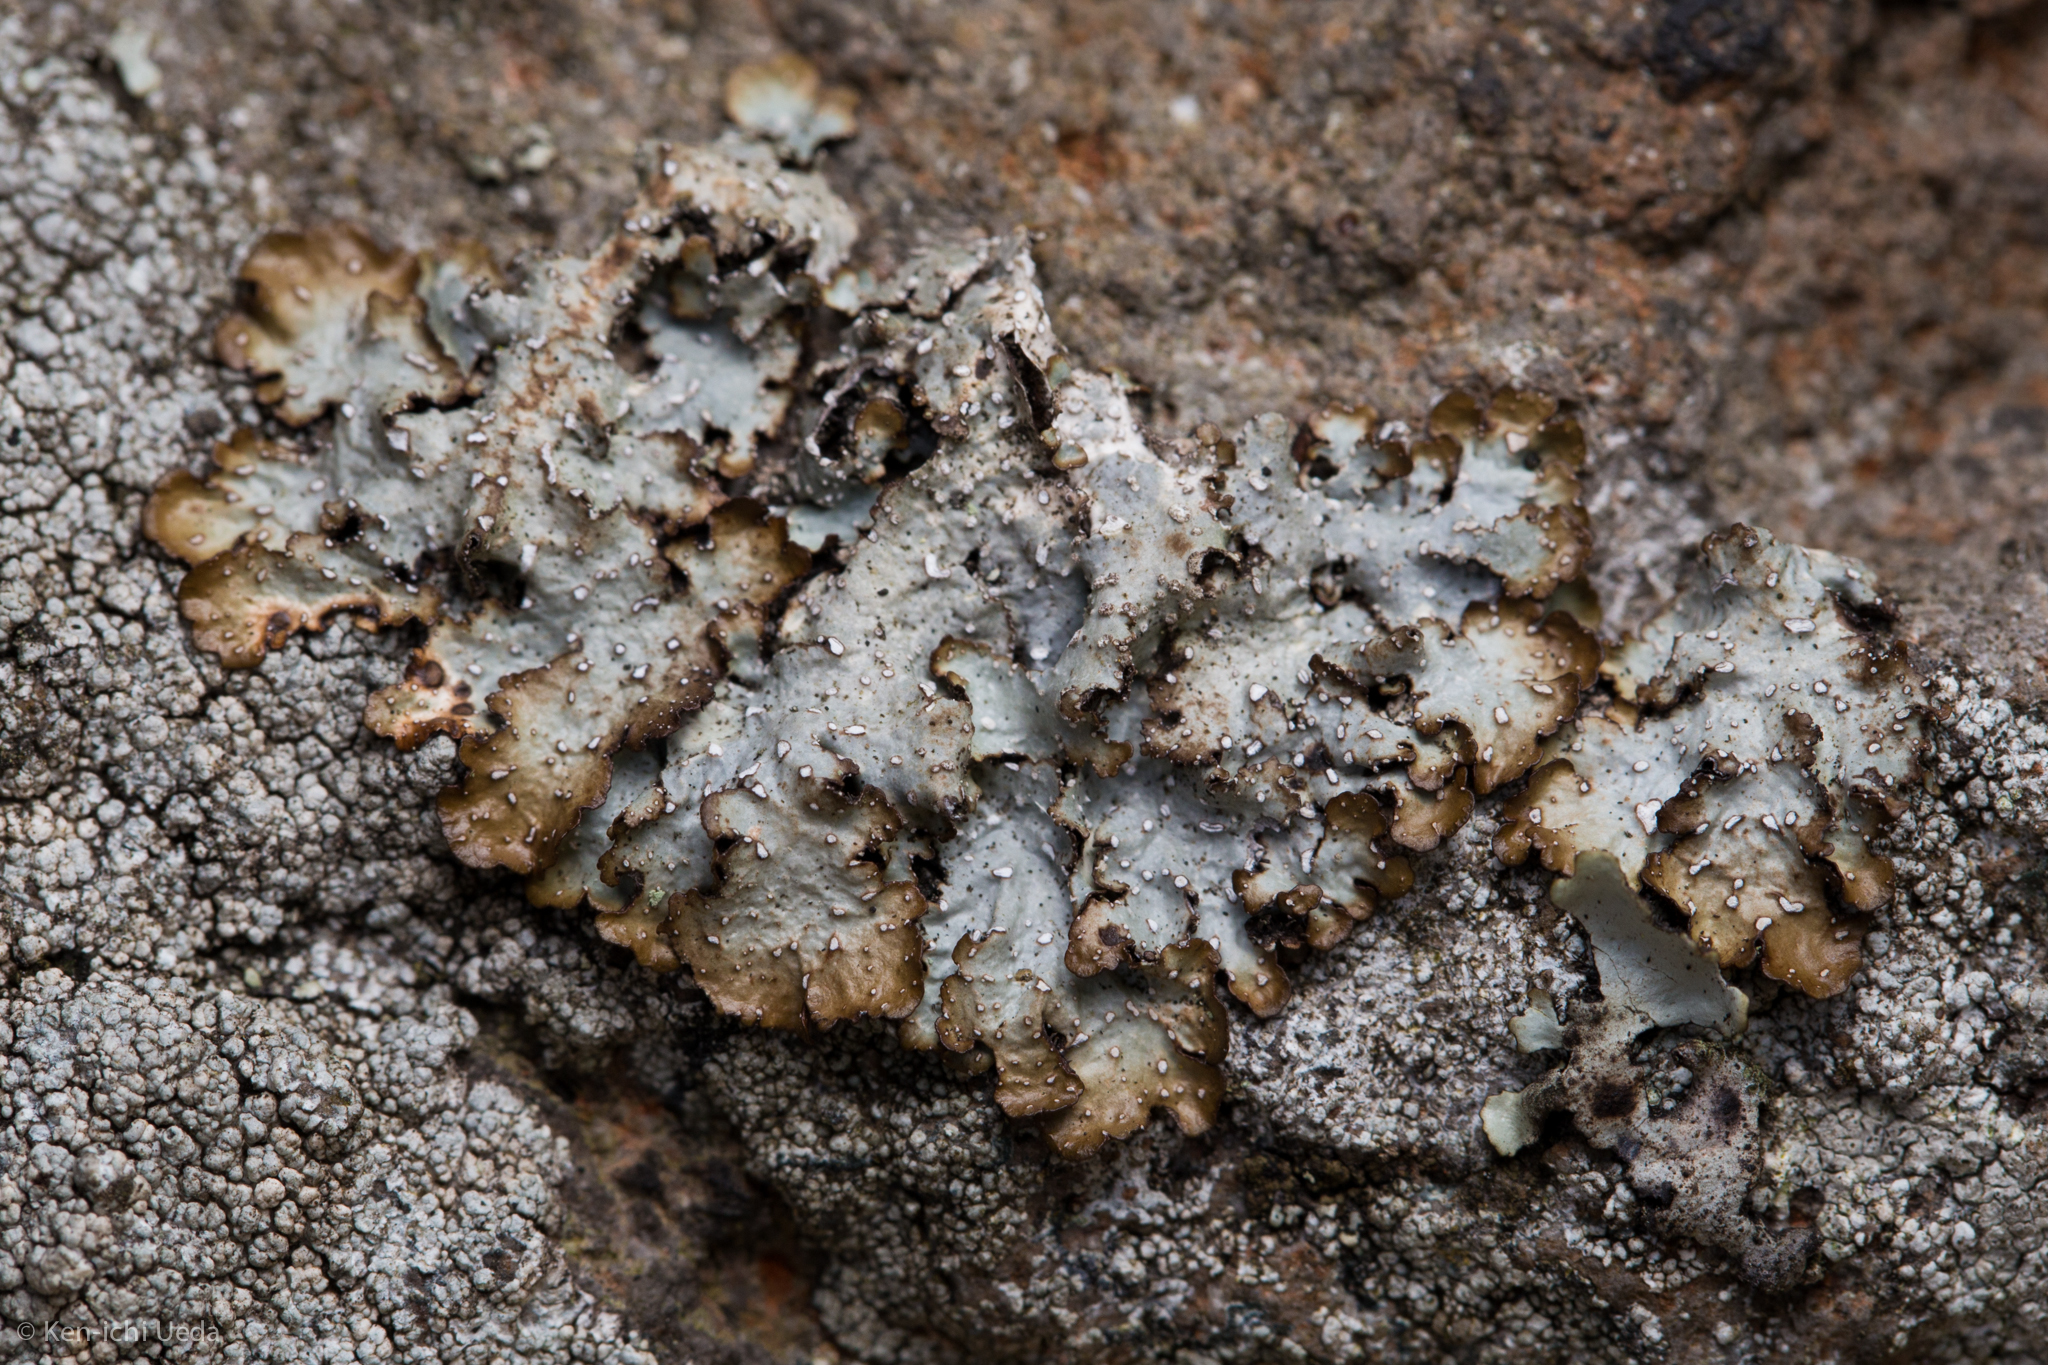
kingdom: Fungi
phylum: Ascomycota
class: Lecanoromycetes
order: Lecanorales
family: Parmeliaceae
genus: Punctelia
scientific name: Punctelia stictica
